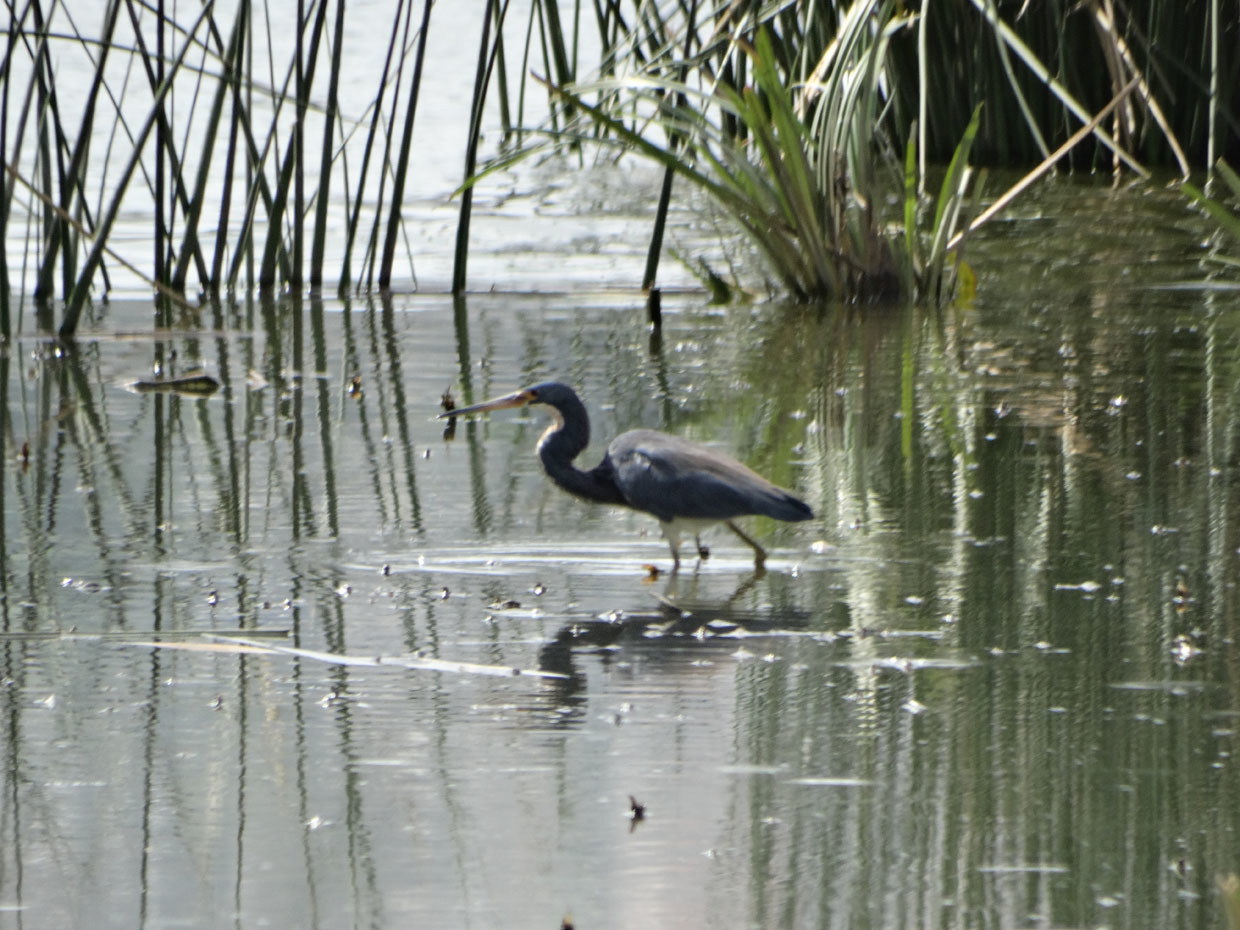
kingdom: Animalia
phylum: Chordata
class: Aves
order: Pelecaniformes
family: Ardeidae
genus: Egretta
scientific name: Egretta tricolor
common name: Tricolored heron
